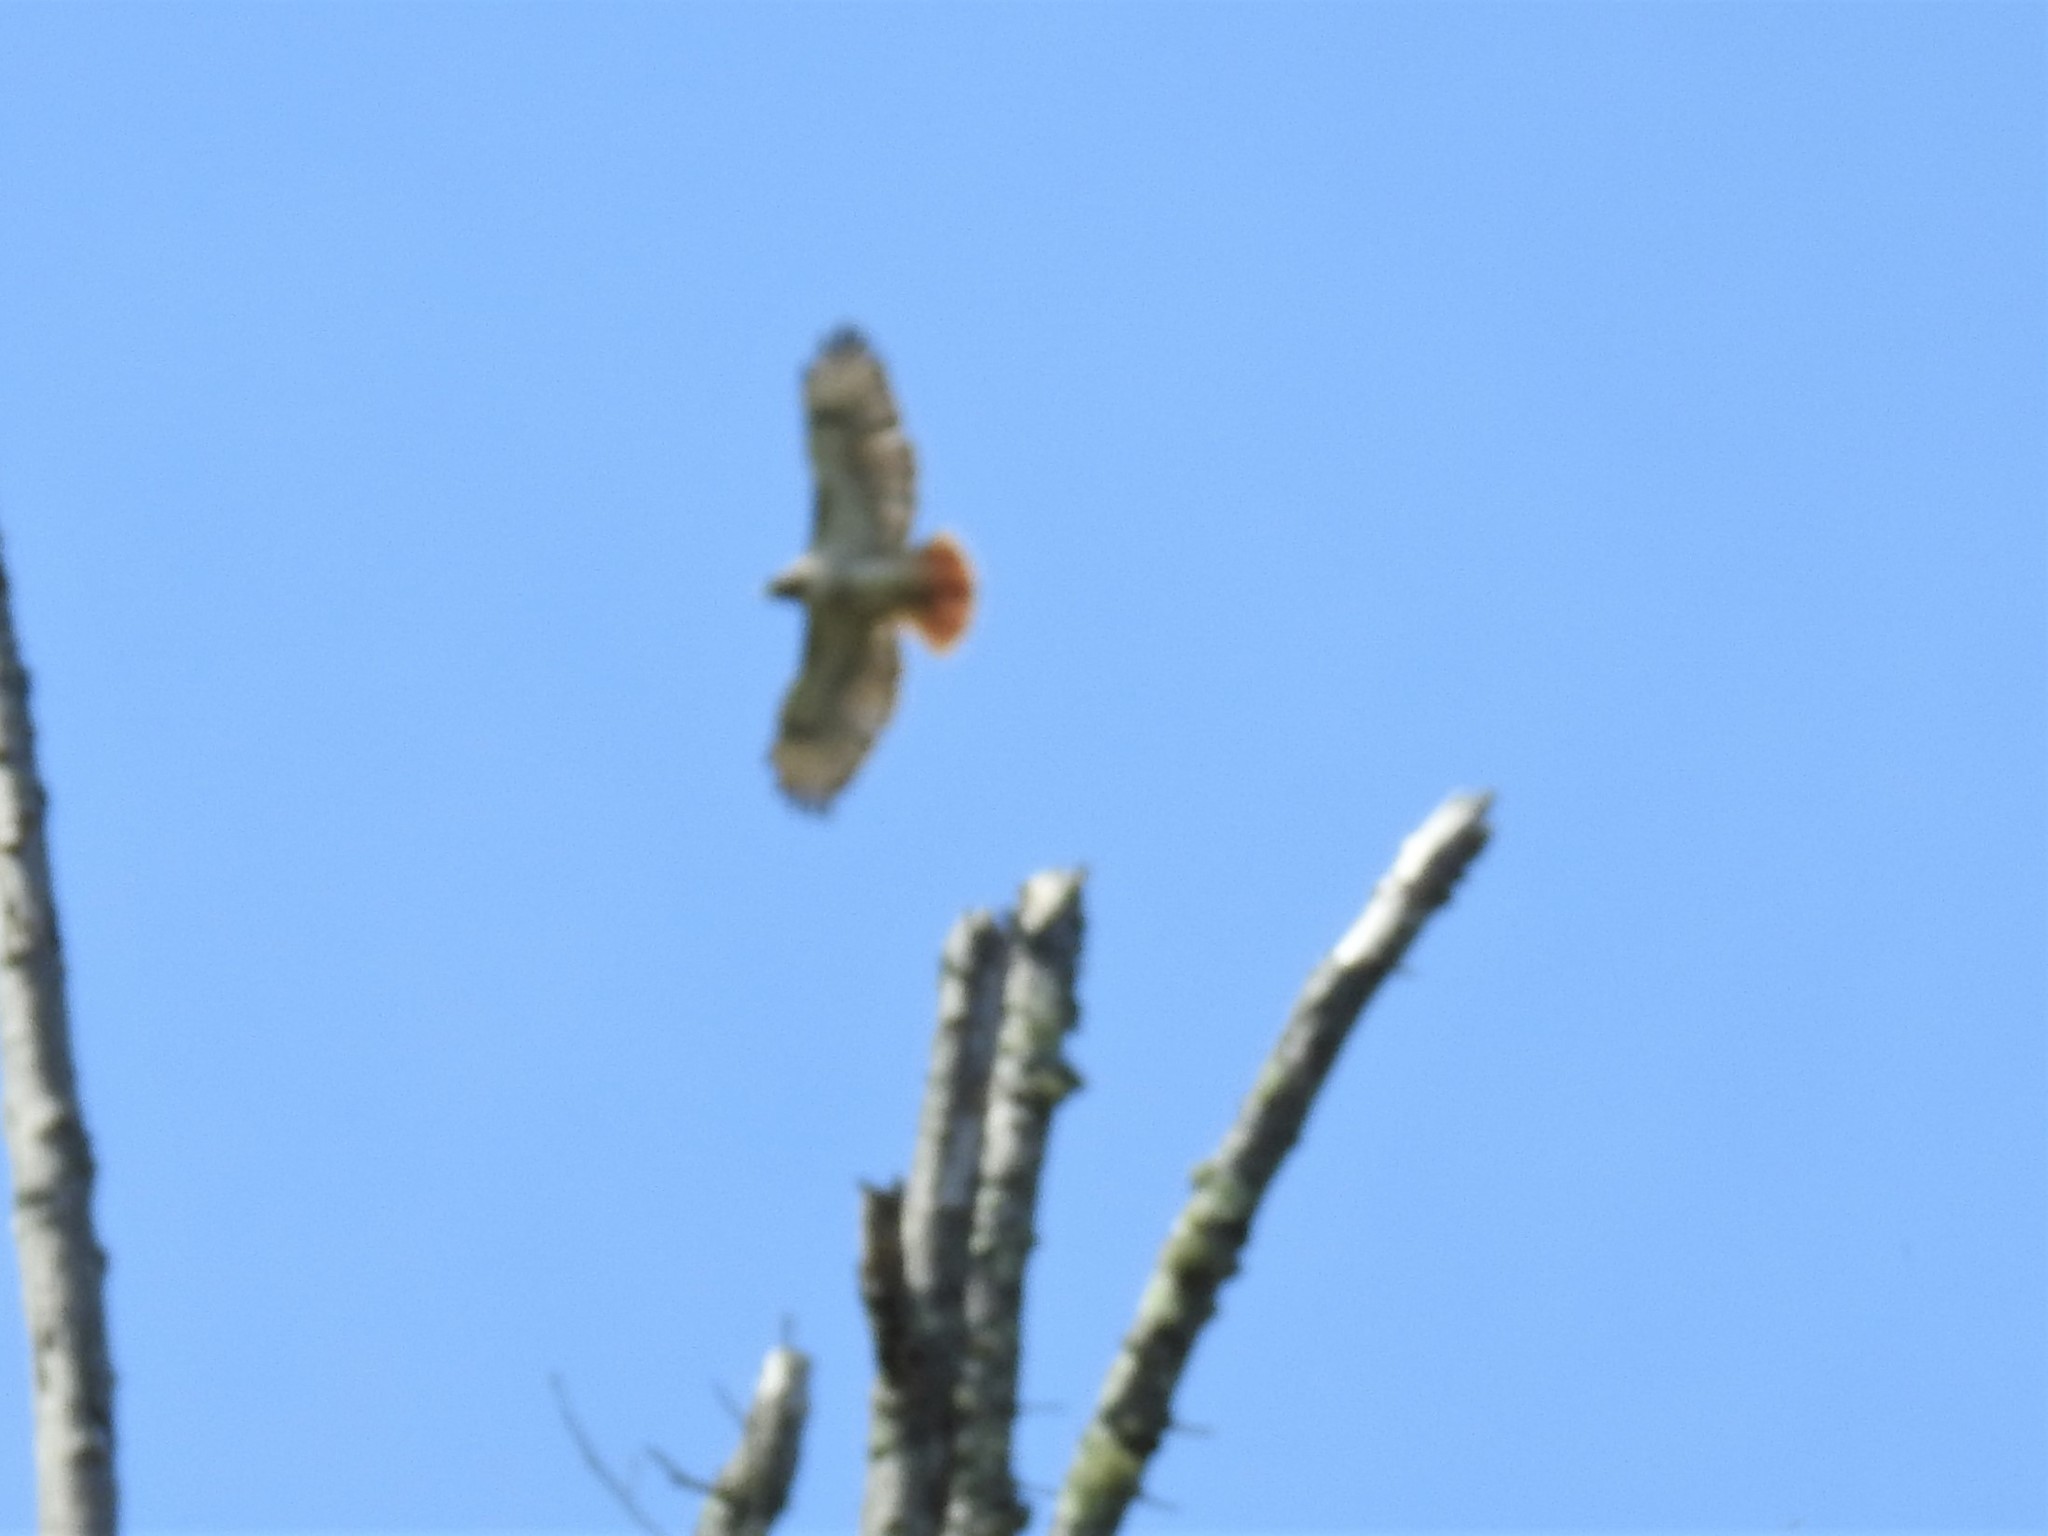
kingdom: Animalia
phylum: Chordata
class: Aves
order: Accipitriformes
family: Accipitridae
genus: Buteo
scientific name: Buteo jamaicensis
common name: Red-tailed hawk
